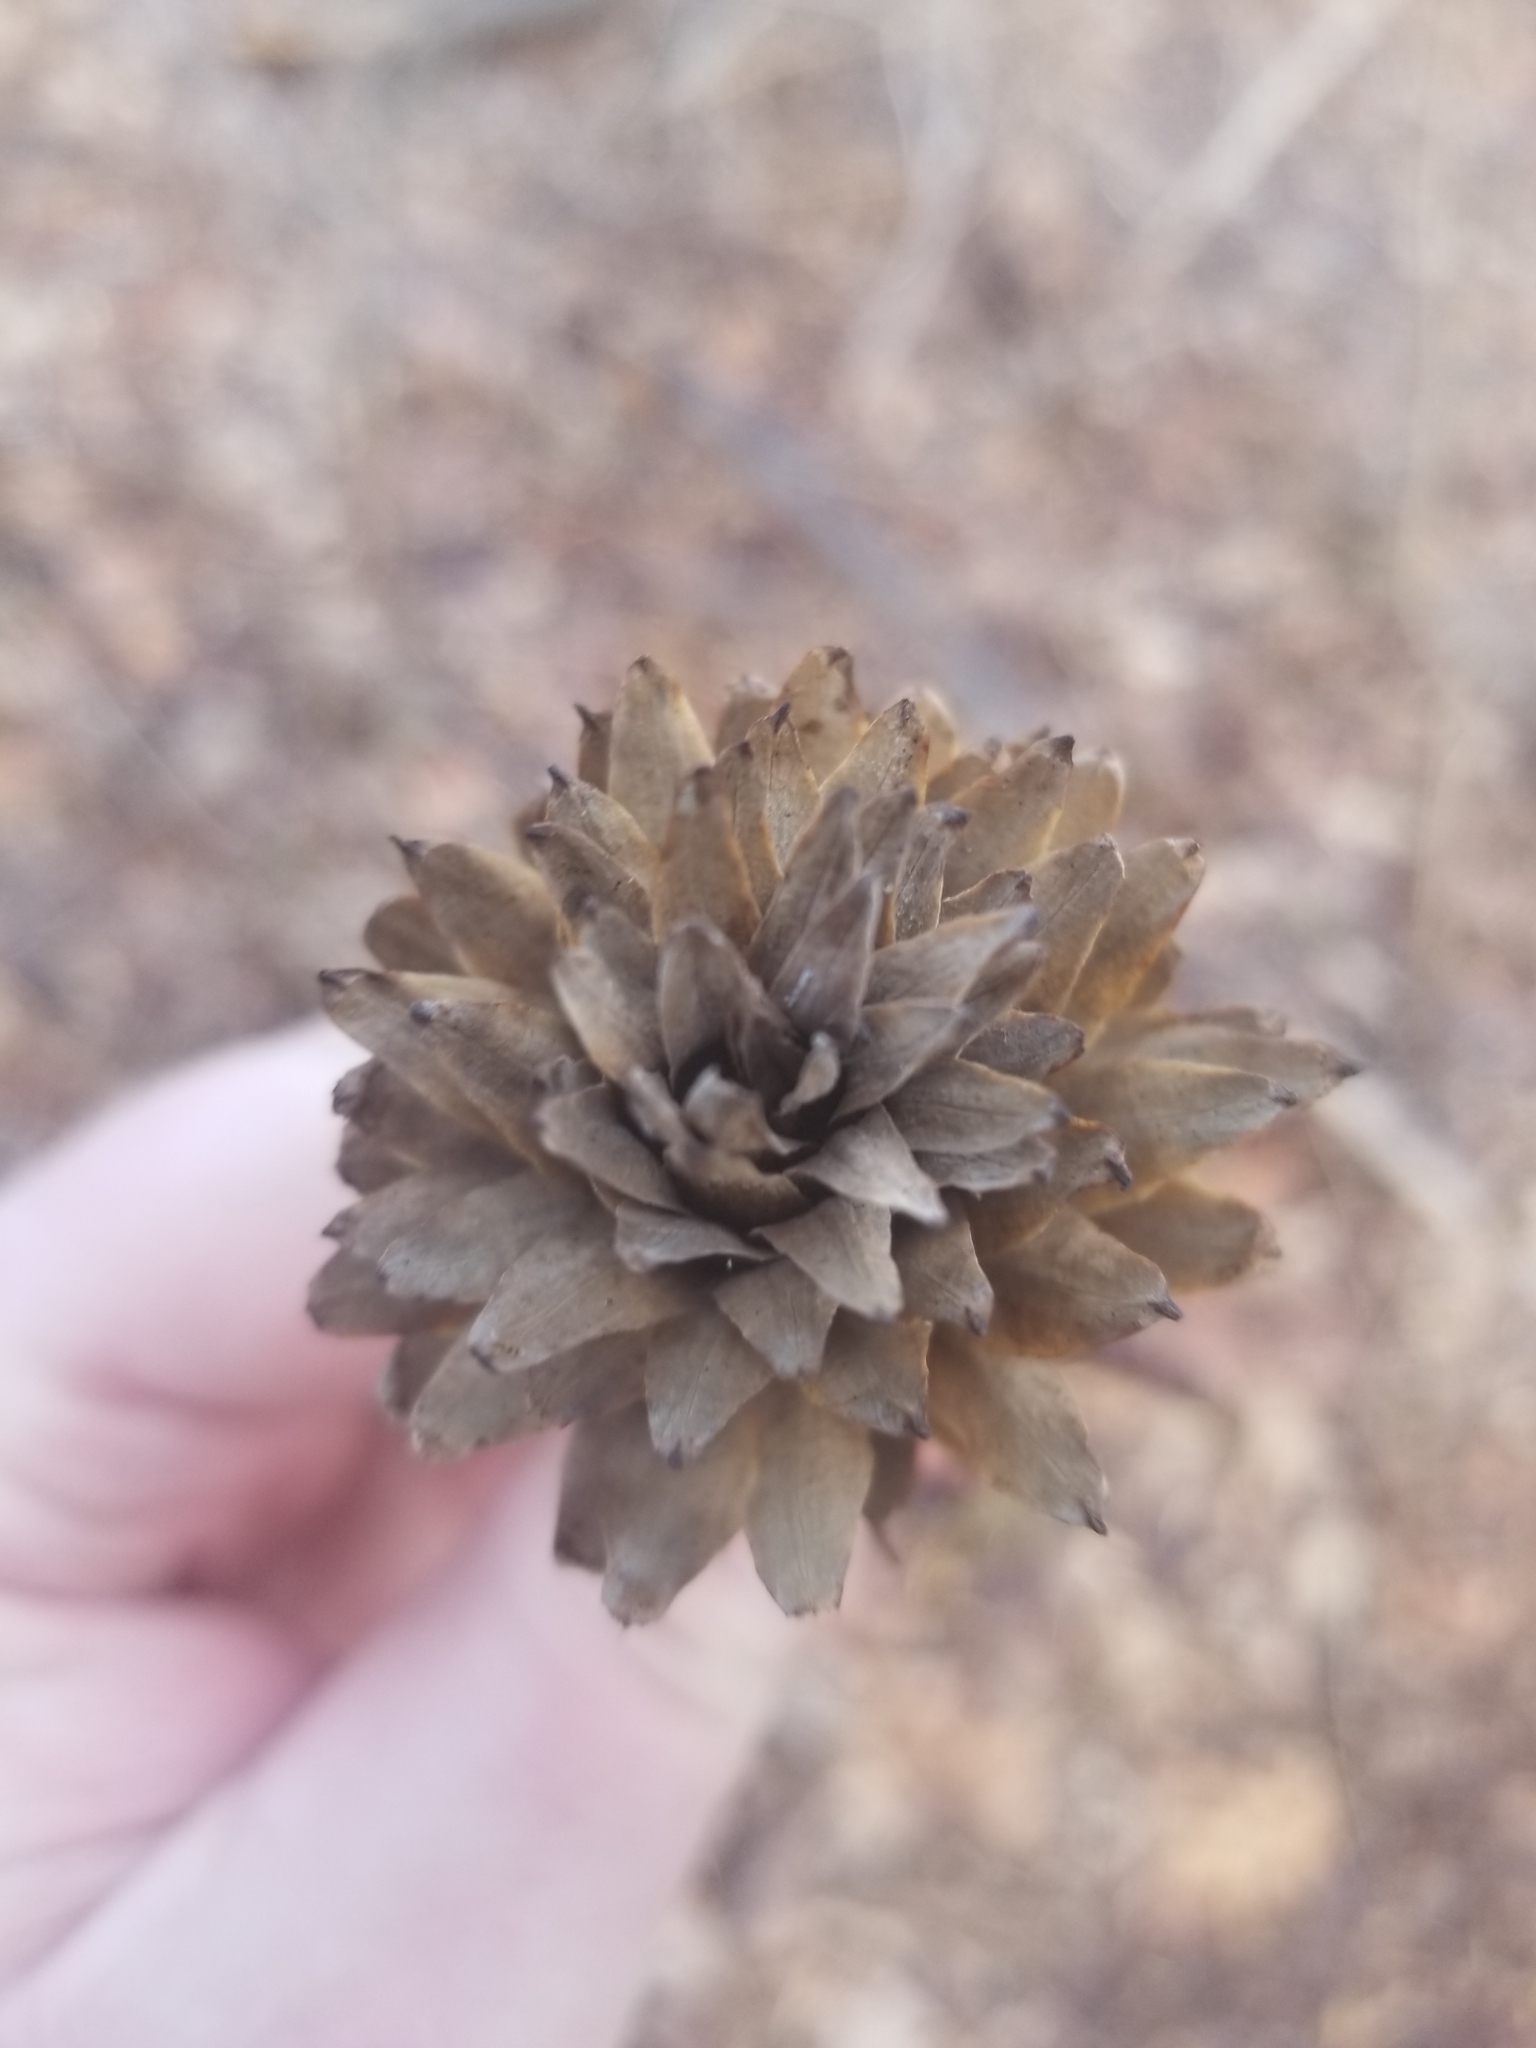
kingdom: Plantae
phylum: Tracheophyta
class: Magnoliopsida
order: Magnoliales
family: Magnoliaceae
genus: Liriodendron
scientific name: Liriodendron tulipifera
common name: Tulip tree
